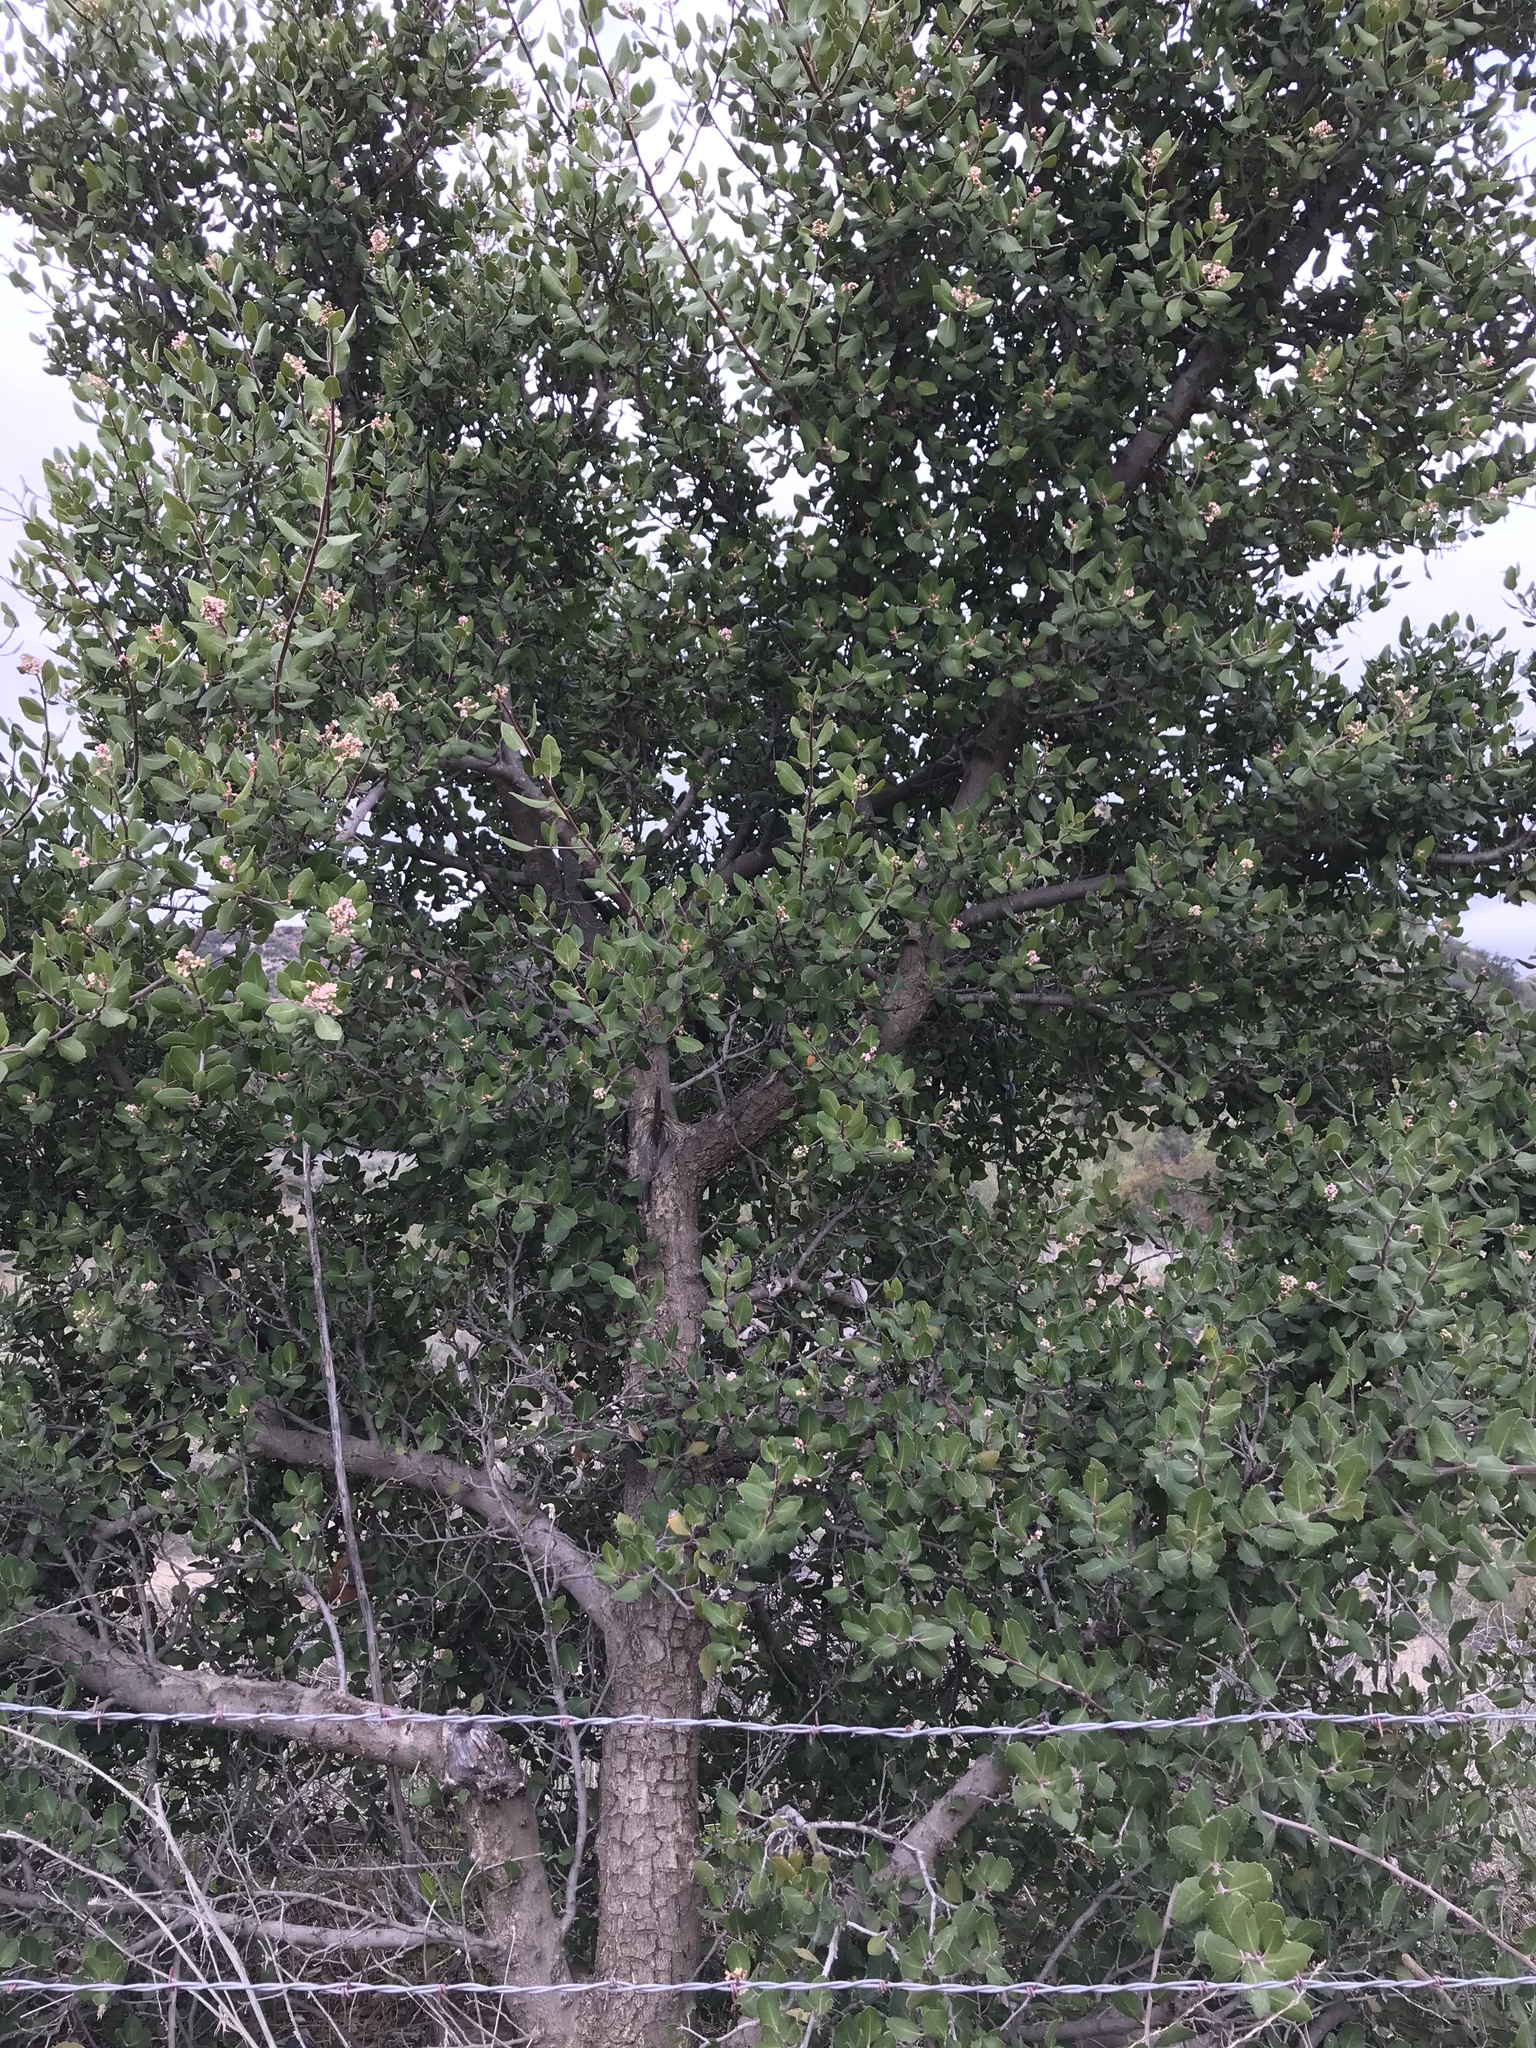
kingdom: Plantae
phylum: Tracheophyta
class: Magnoliopsida
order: Sapindales
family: Anacardiaceae
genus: Rhus
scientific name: Rhus integrifolia
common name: Lemonade sumac
